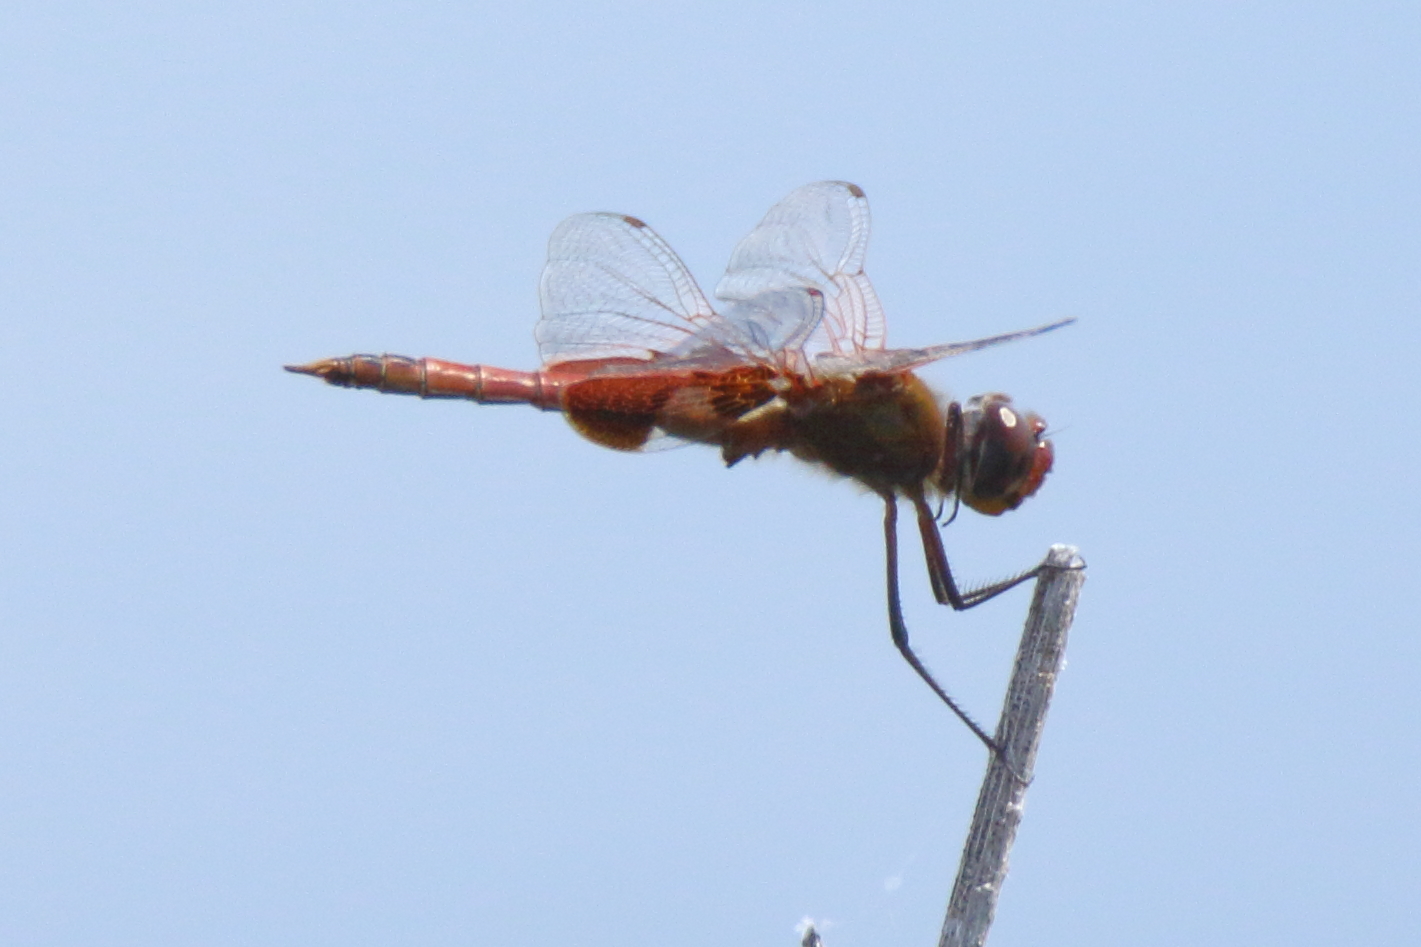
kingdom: Animalia
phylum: Arthropoda
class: Insecta
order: Odonata
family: Libellulidae
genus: Tramea
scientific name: Tramea onusta
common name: Red saddlebags
